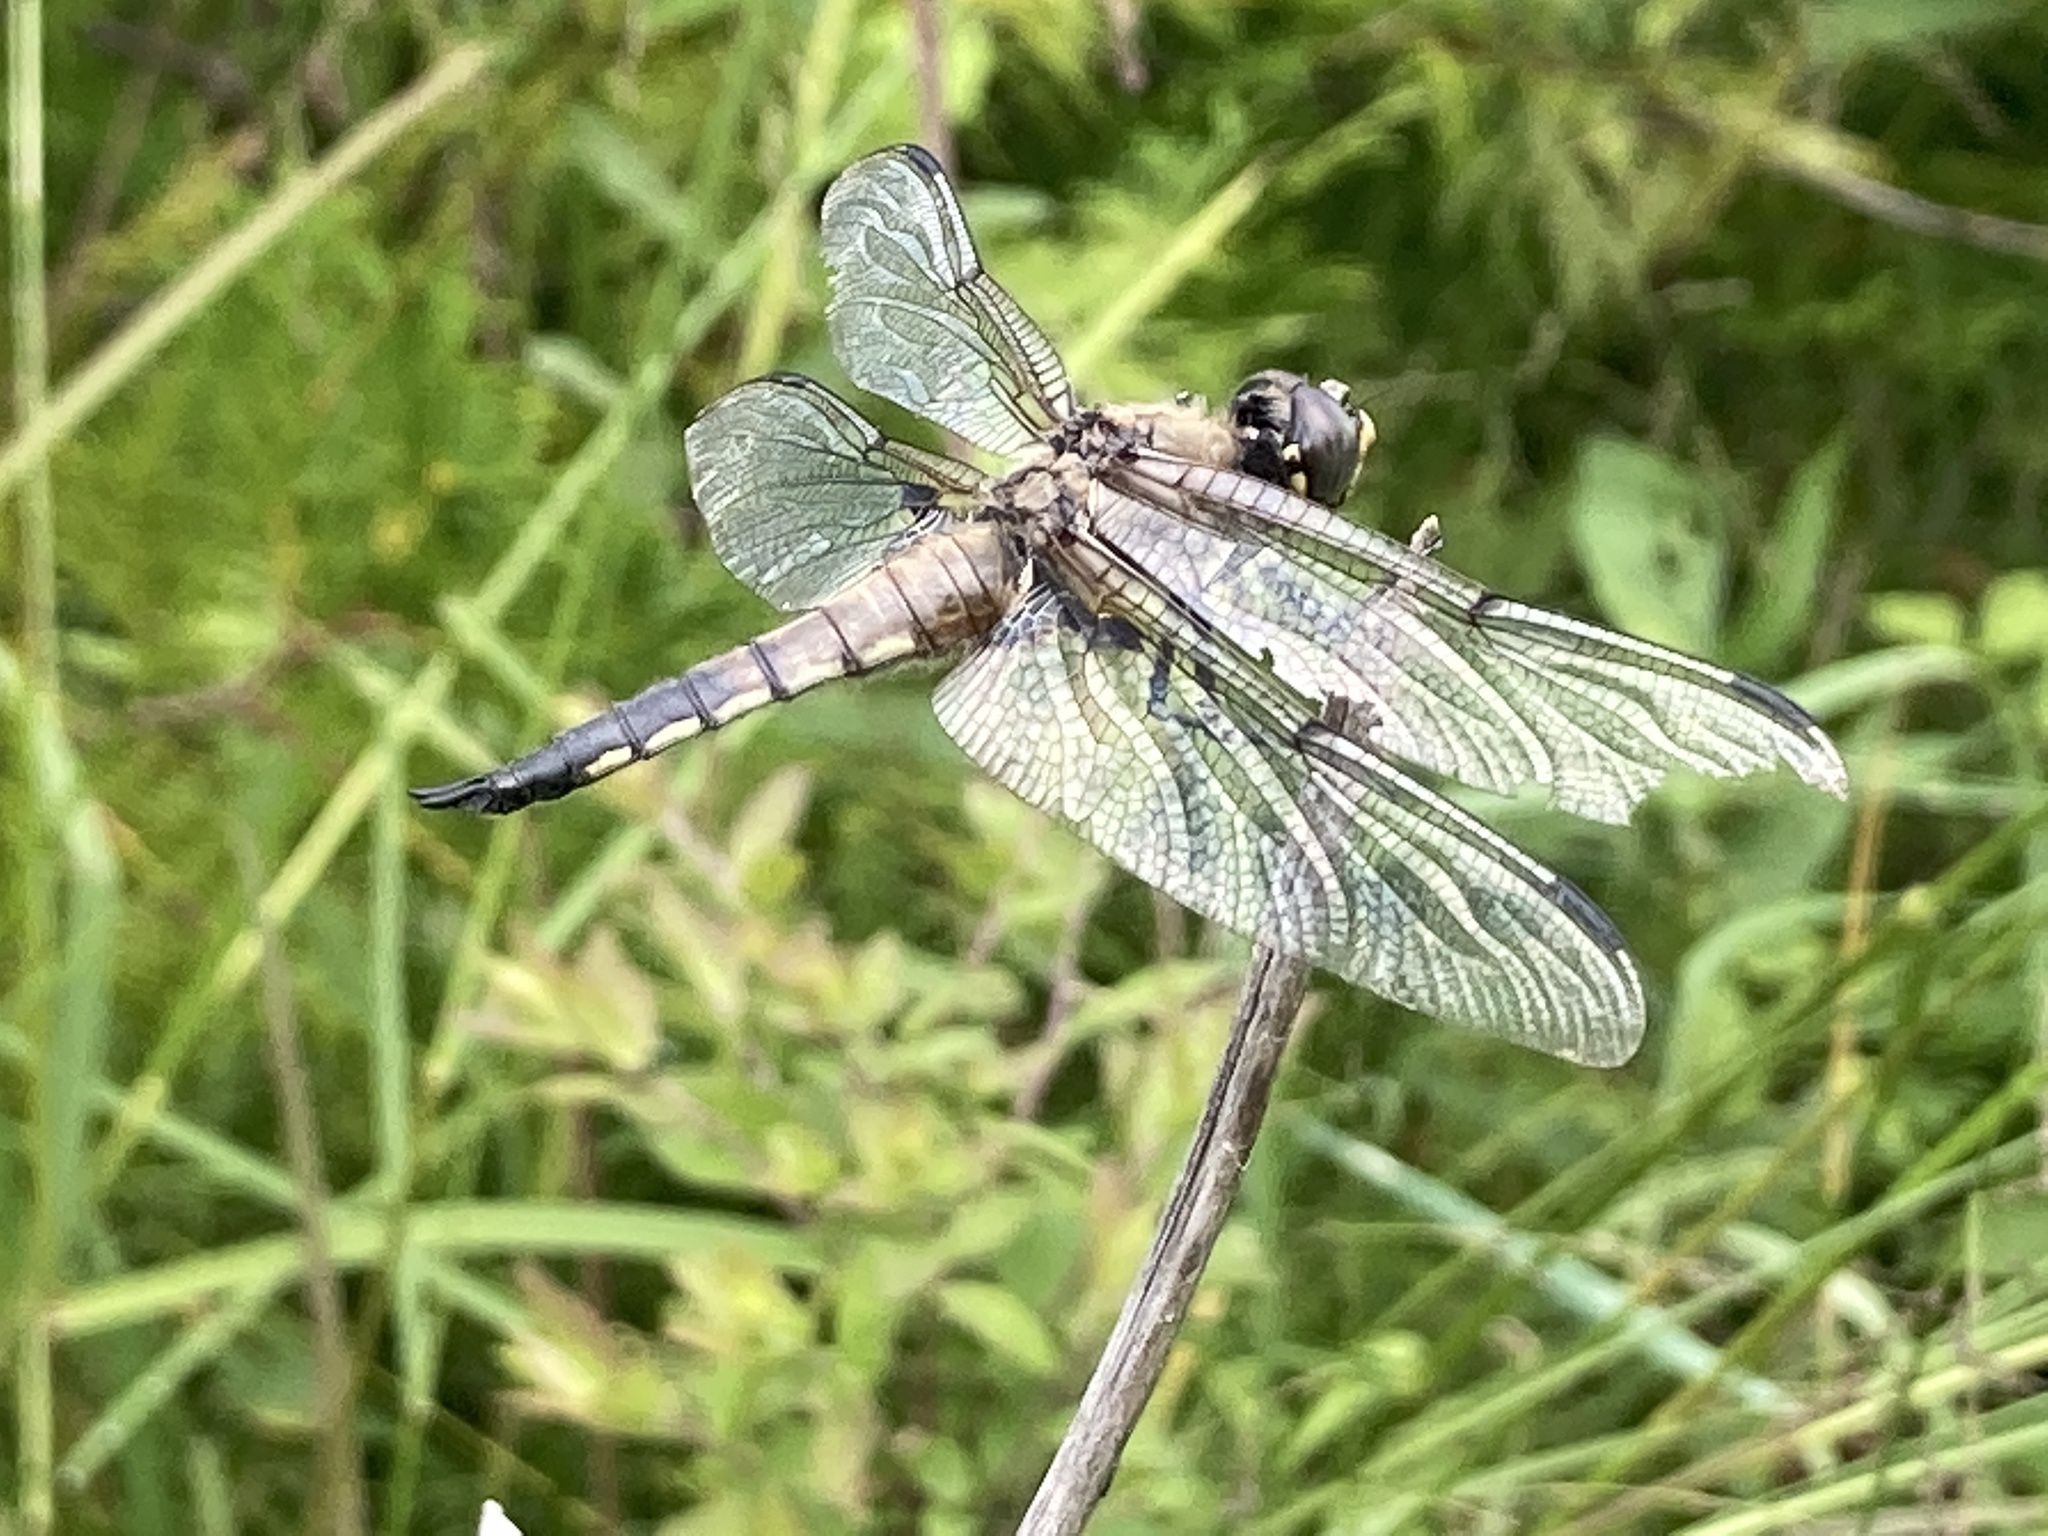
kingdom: Animalia
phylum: Arthropoda
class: Insecta
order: Odonata
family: Libellulidae
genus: Libellula
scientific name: Libellula quadrimaculata
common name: Four-spotted chaser
